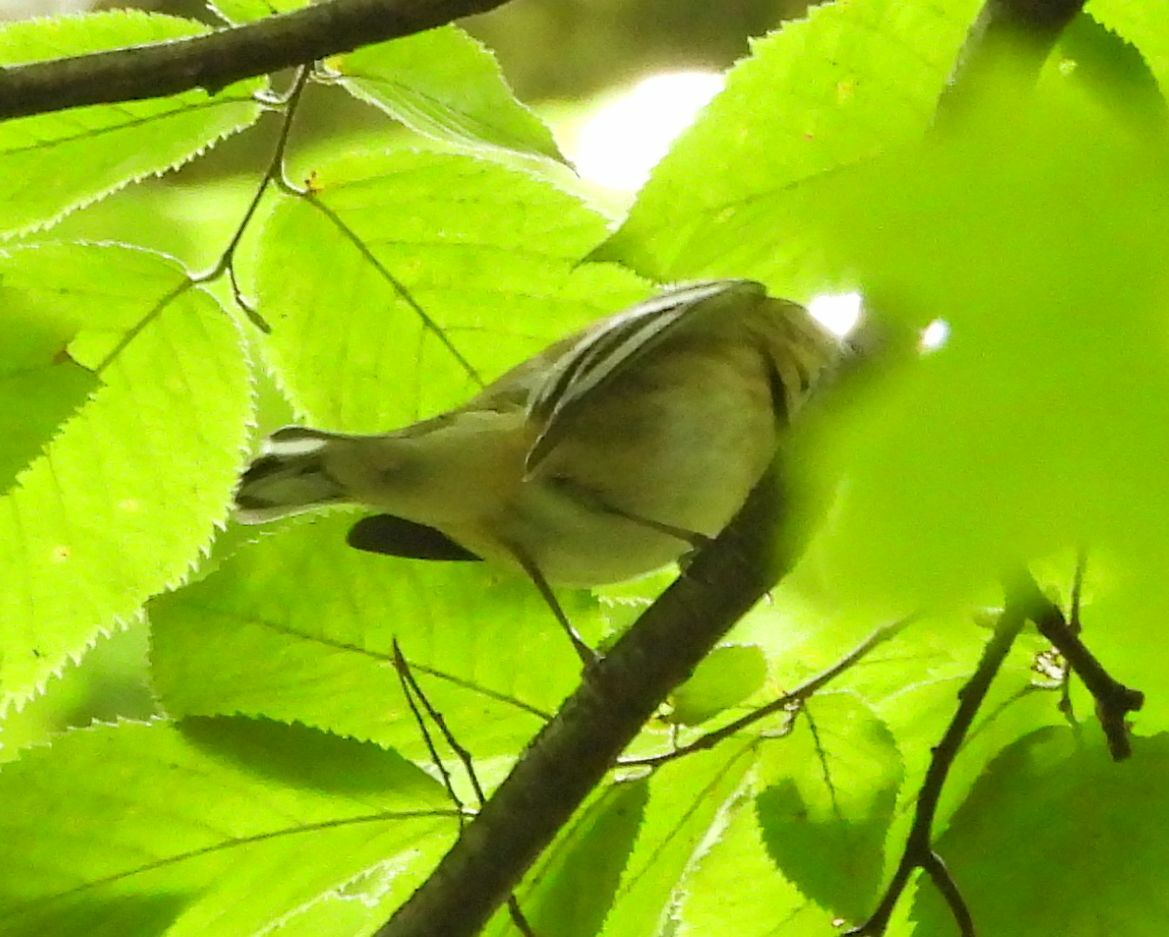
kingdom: Animalia
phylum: Chordata
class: Aves
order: Passeriformes
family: Parulidae
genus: Setophaga
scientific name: Setophaga castanea
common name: Bay-breasted warbler
